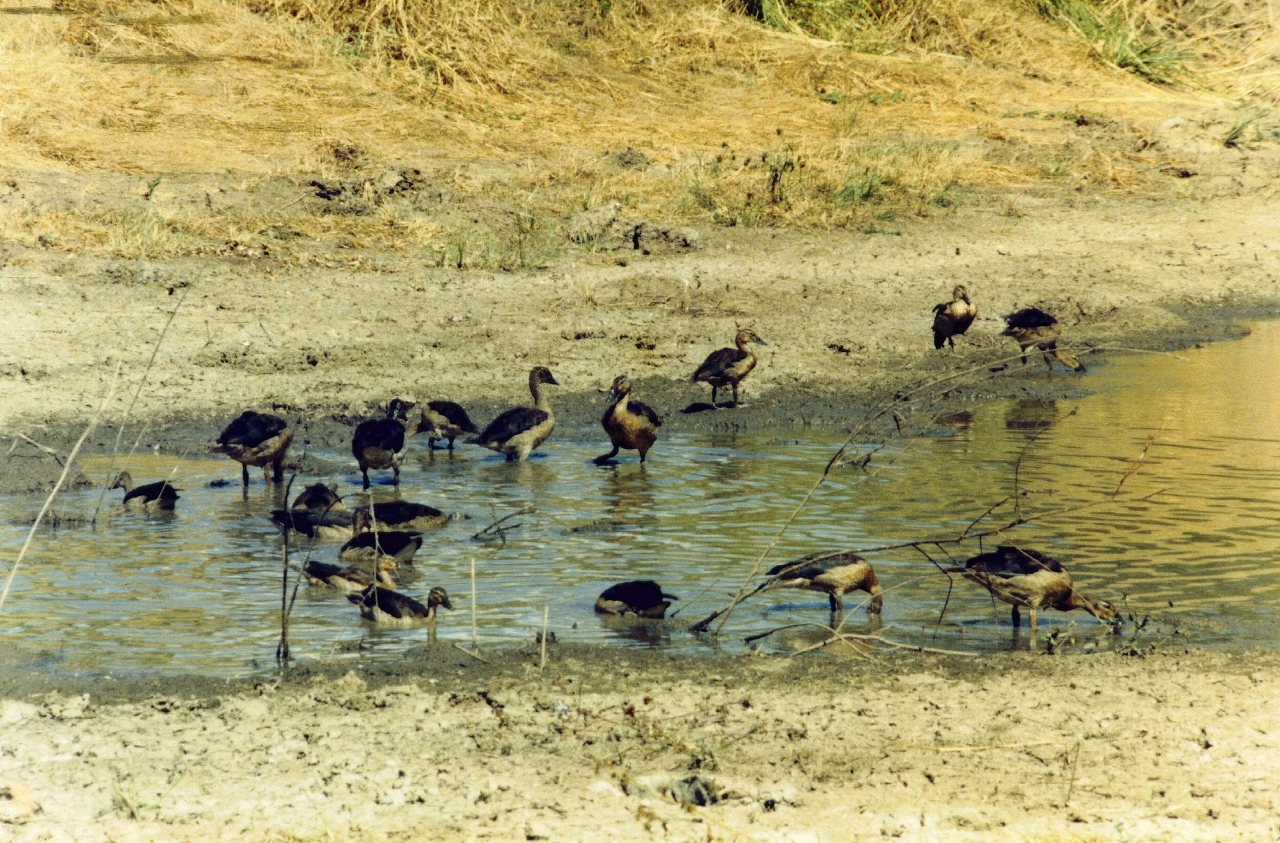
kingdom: Animalia
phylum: Chordata
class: Aves
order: Anseriformes
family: Anatidae
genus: Sarkidiornis
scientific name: Sarkidiornis melanotos
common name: Comb duck
